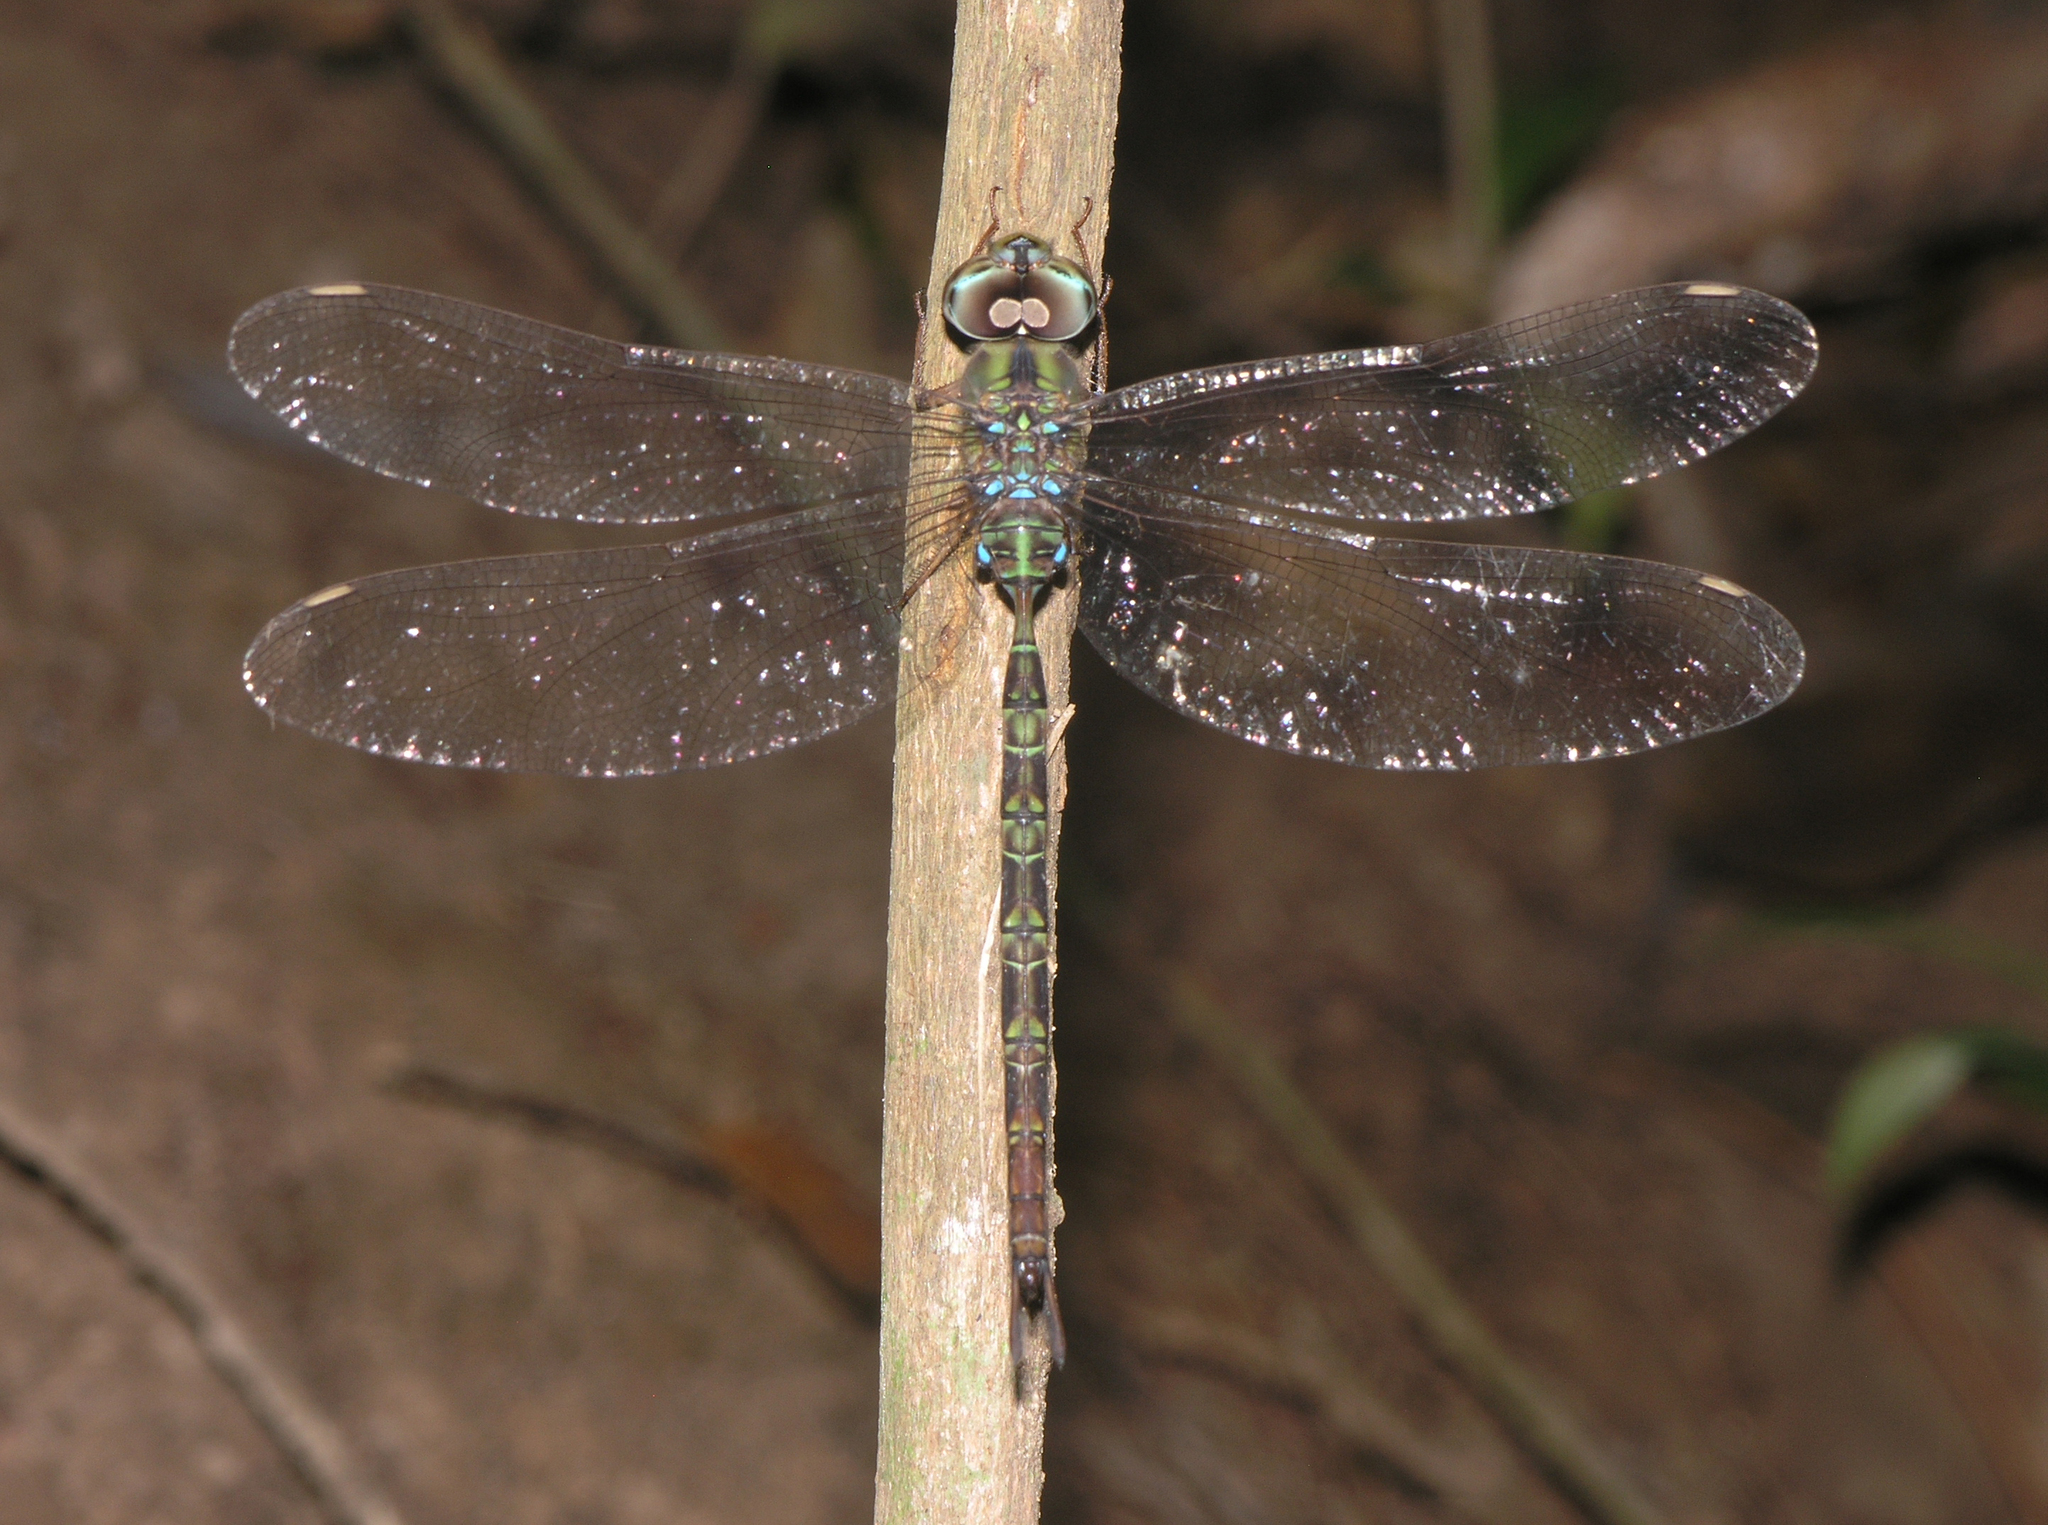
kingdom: Animalia
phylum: Arthropoda
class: Insecta
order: Odonata
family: Aeshnidae
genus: Gynacantha
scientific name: Gynacantha subinterrupta
